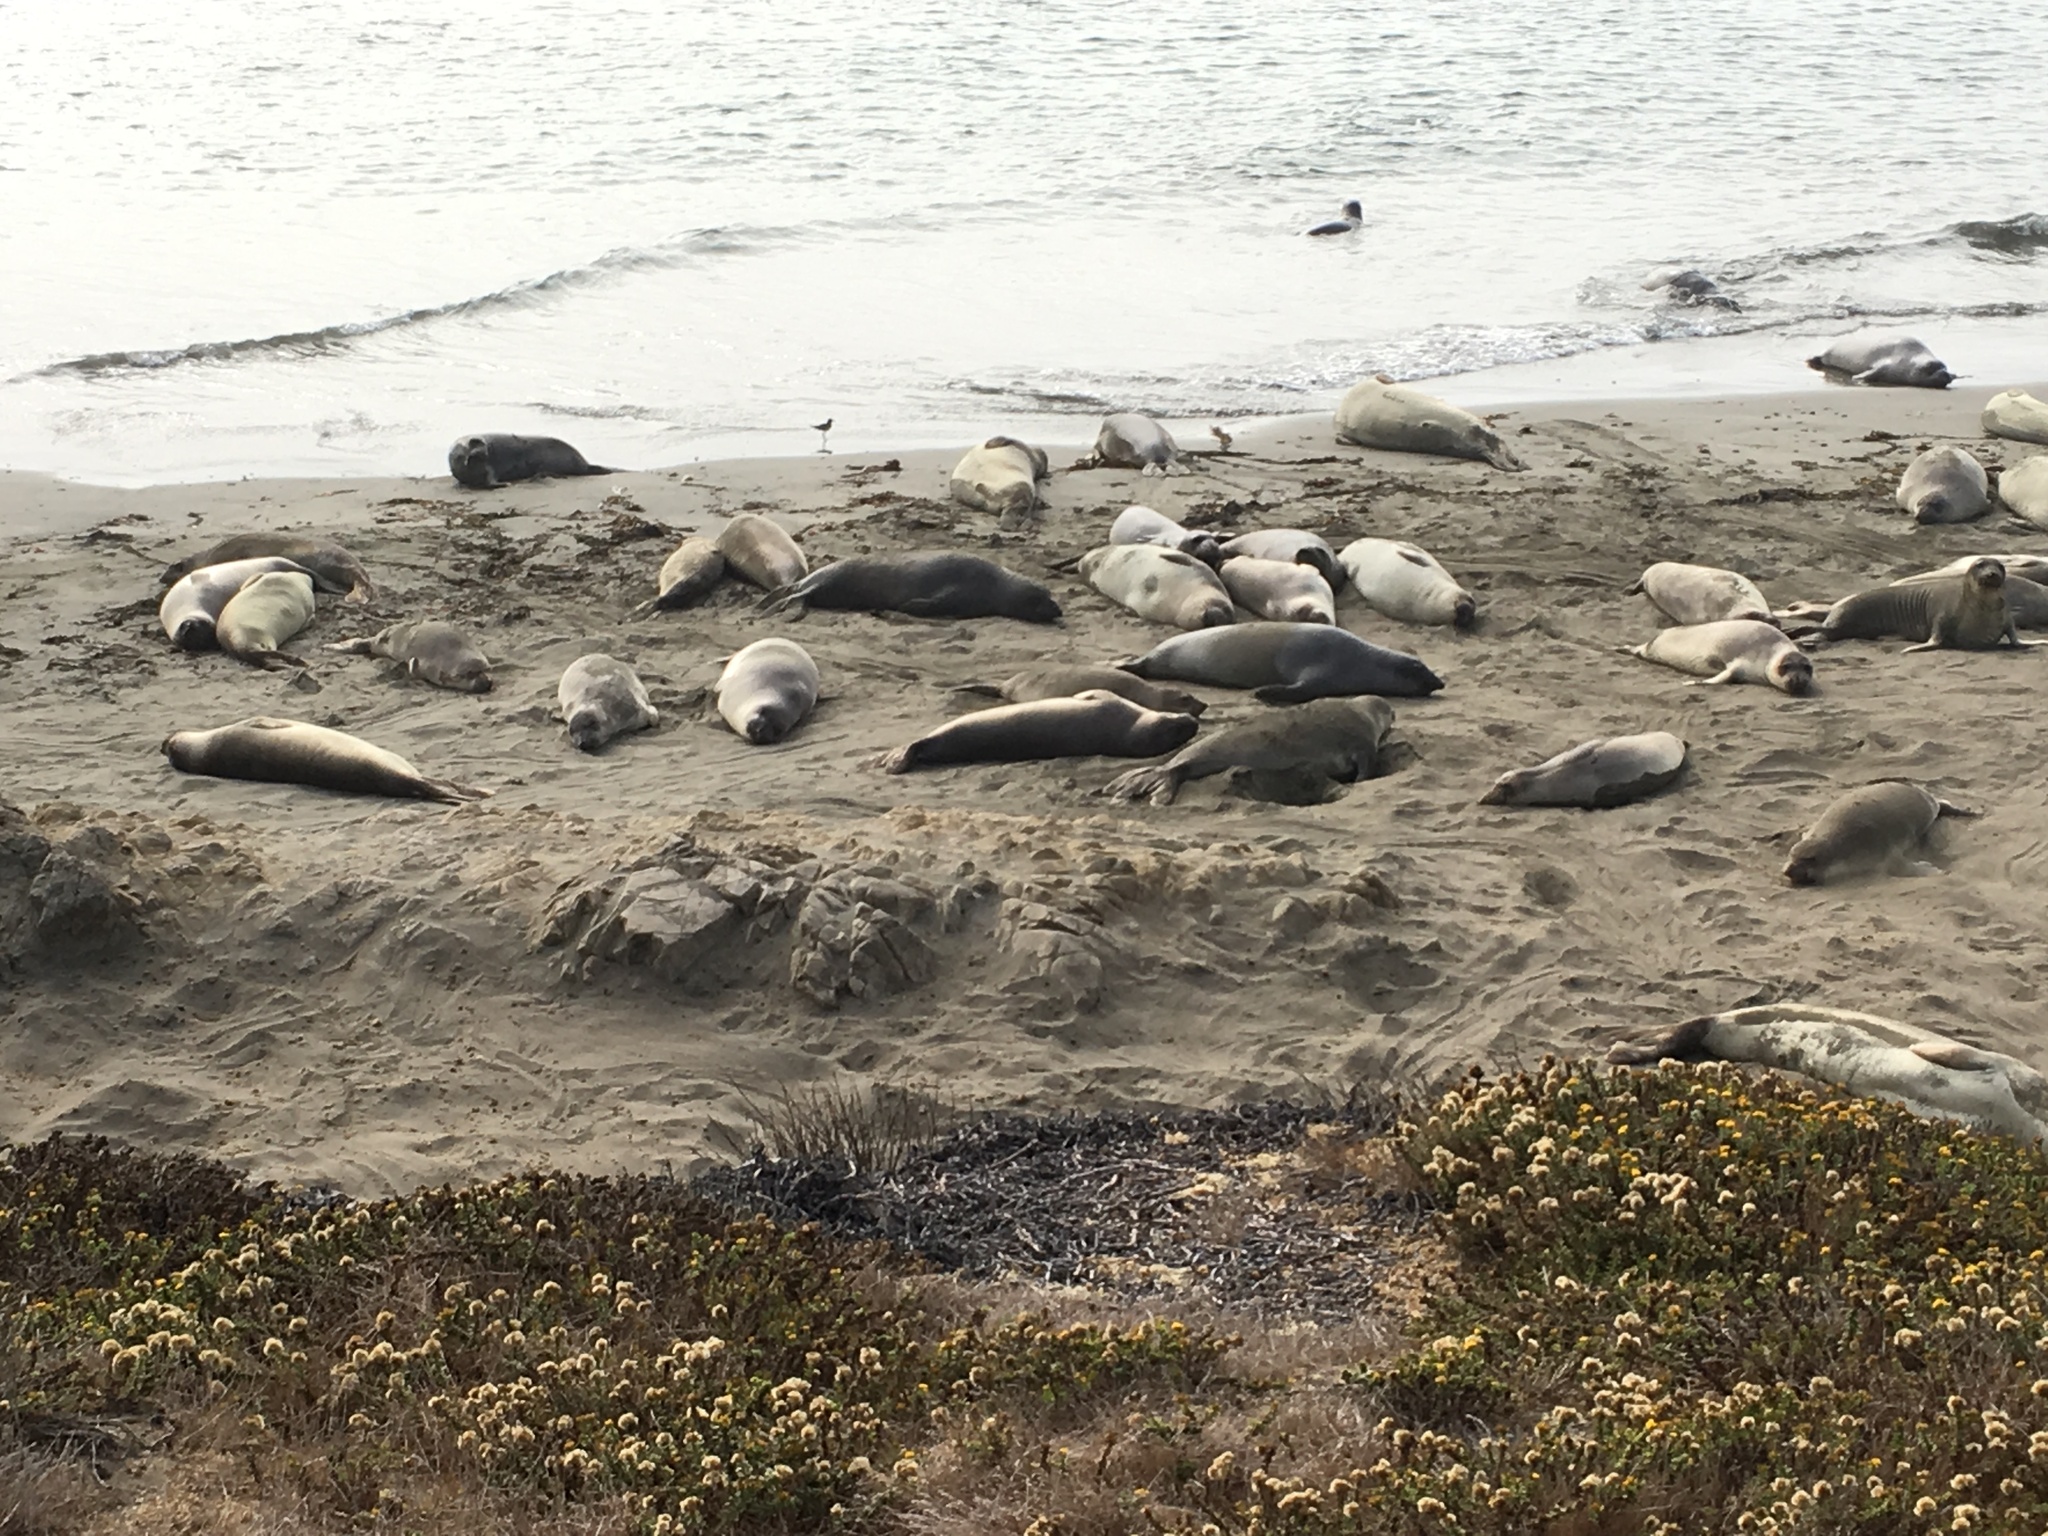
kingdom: Animalia
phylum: Chordata
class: Mammalia
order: Carnivora
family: Phocidae
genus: Mirounga
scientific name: Mirounga angustirostris
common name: Northern elephant seal
